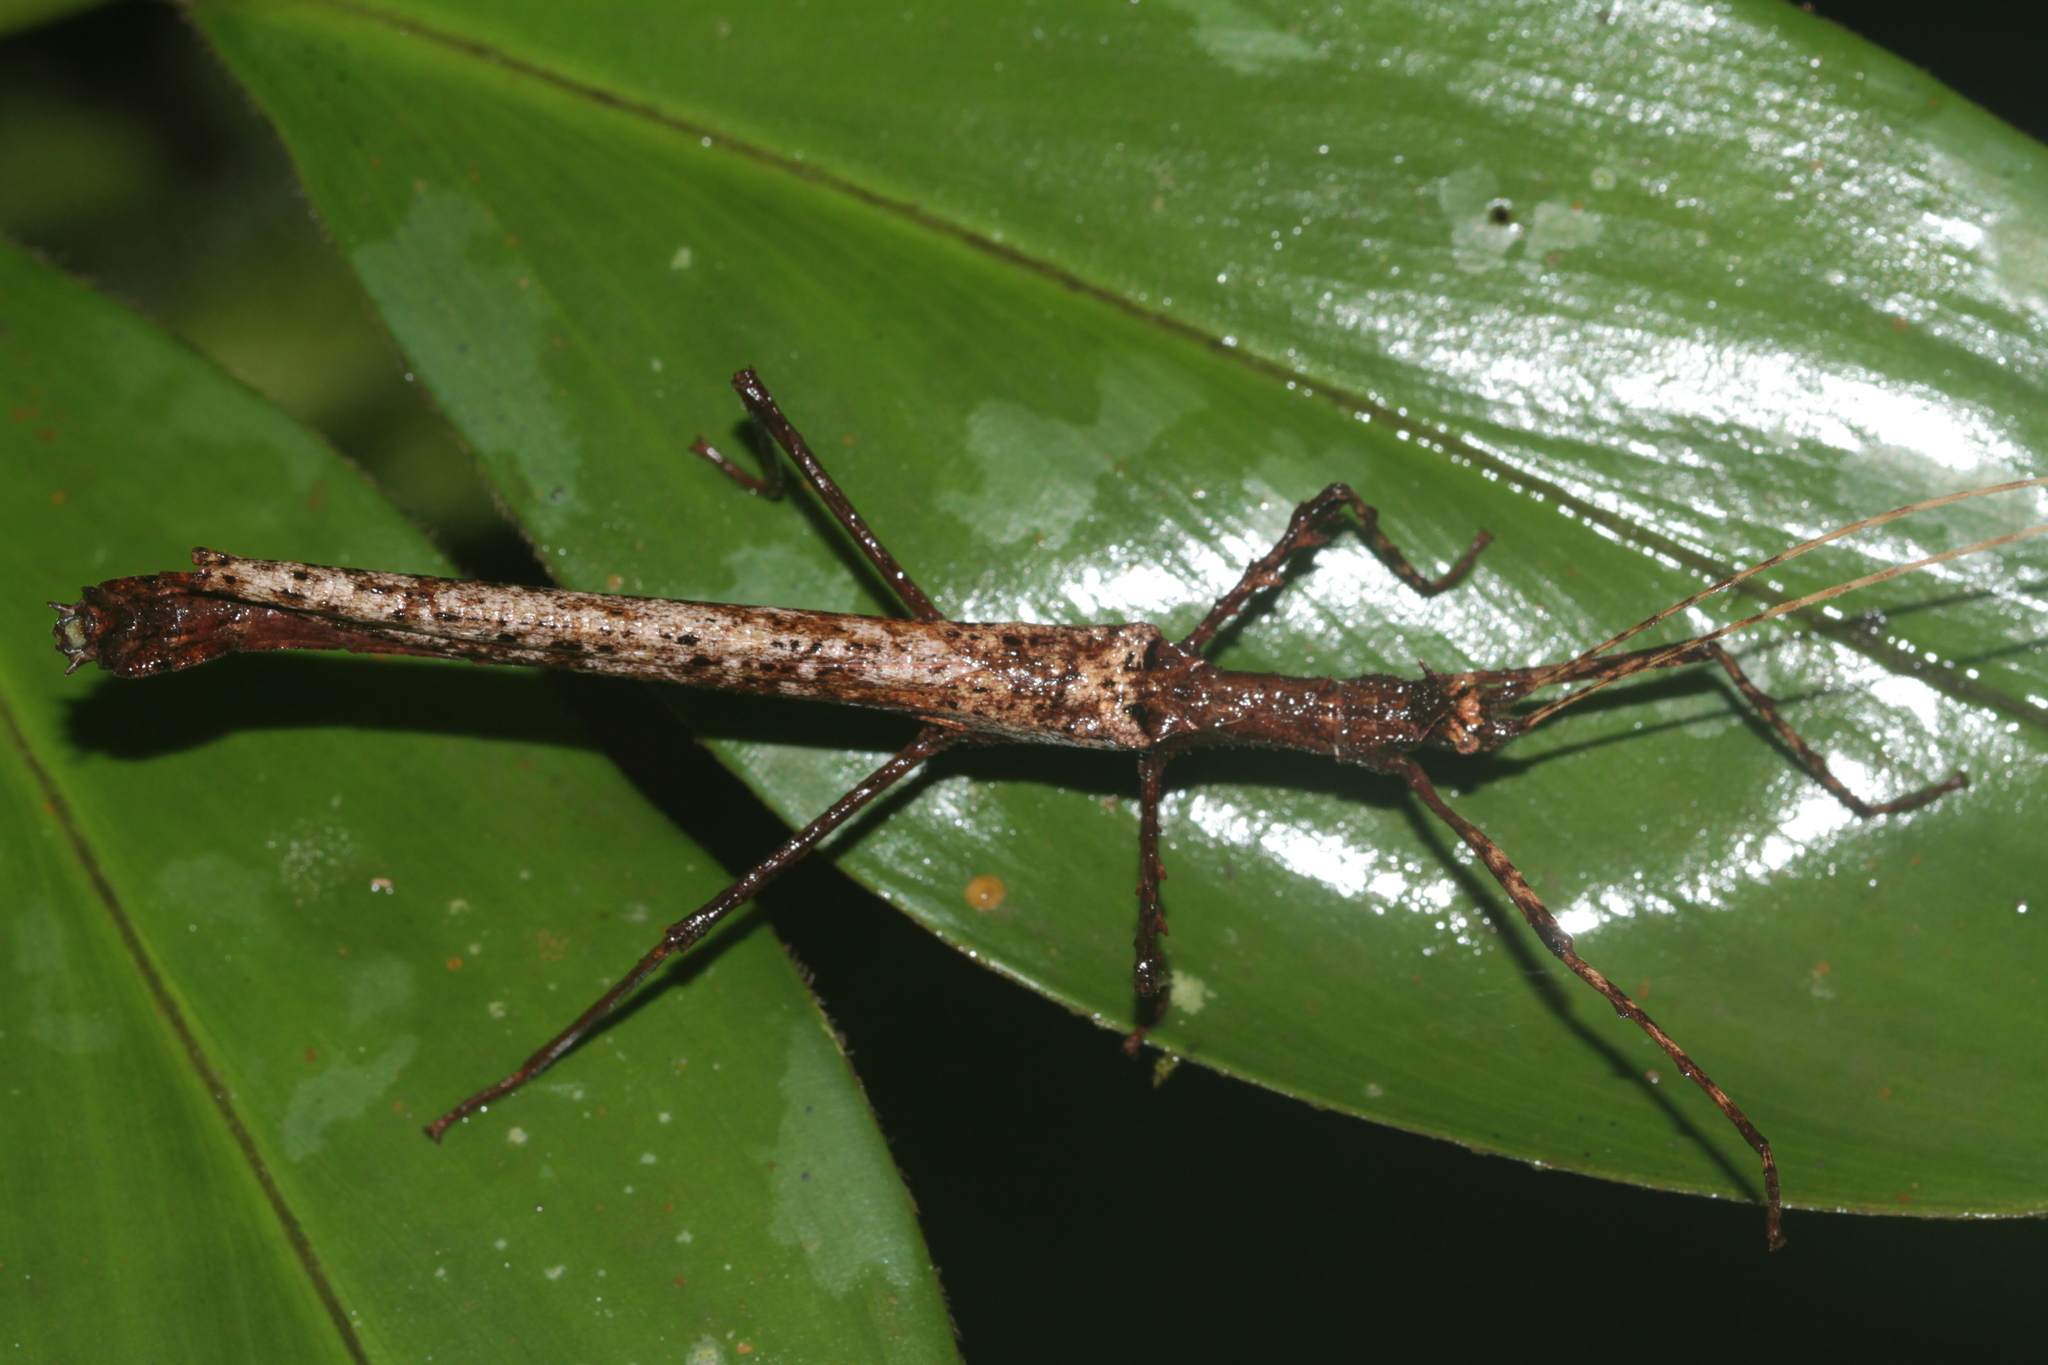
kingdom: Animalia
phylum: Arthropoda
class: Insecta
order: Phasmida
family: Pseudophasmatidae
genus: Creoxylus
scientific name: Creoxylus spinosus
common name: Trinidad log stick insect
